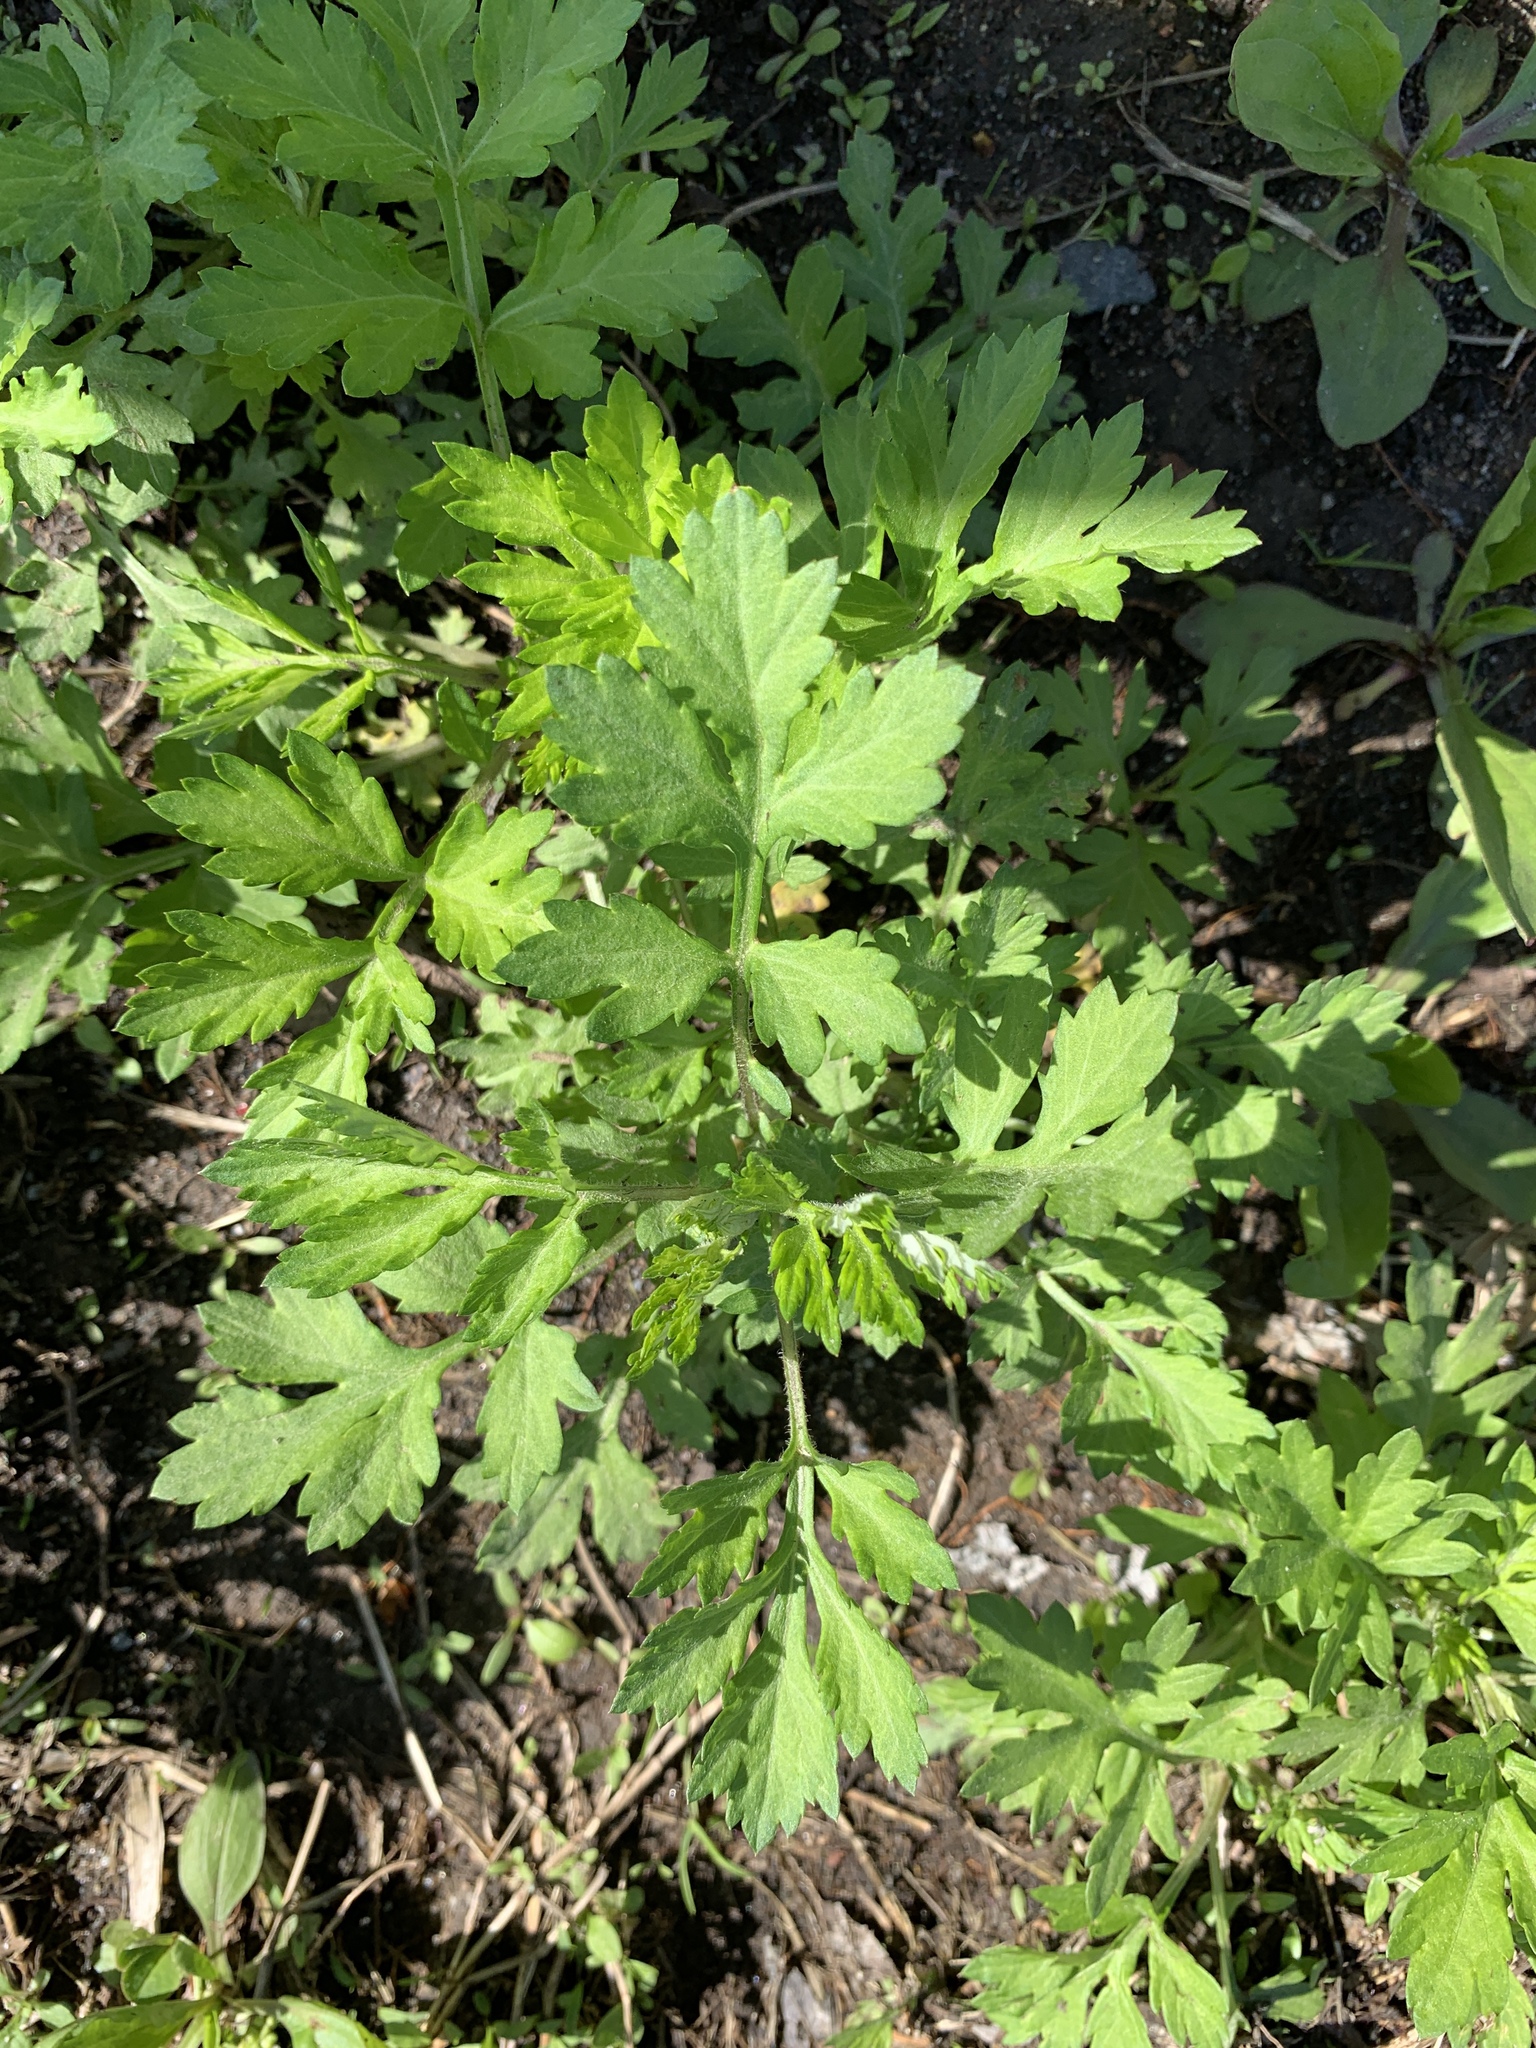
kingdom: Plantae
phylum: Tracheophyta
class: Magnoliopsida
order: Asterales
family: Asteraceae
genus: Artemisia
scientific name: Artemisia vulgaris
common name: Mugwort
